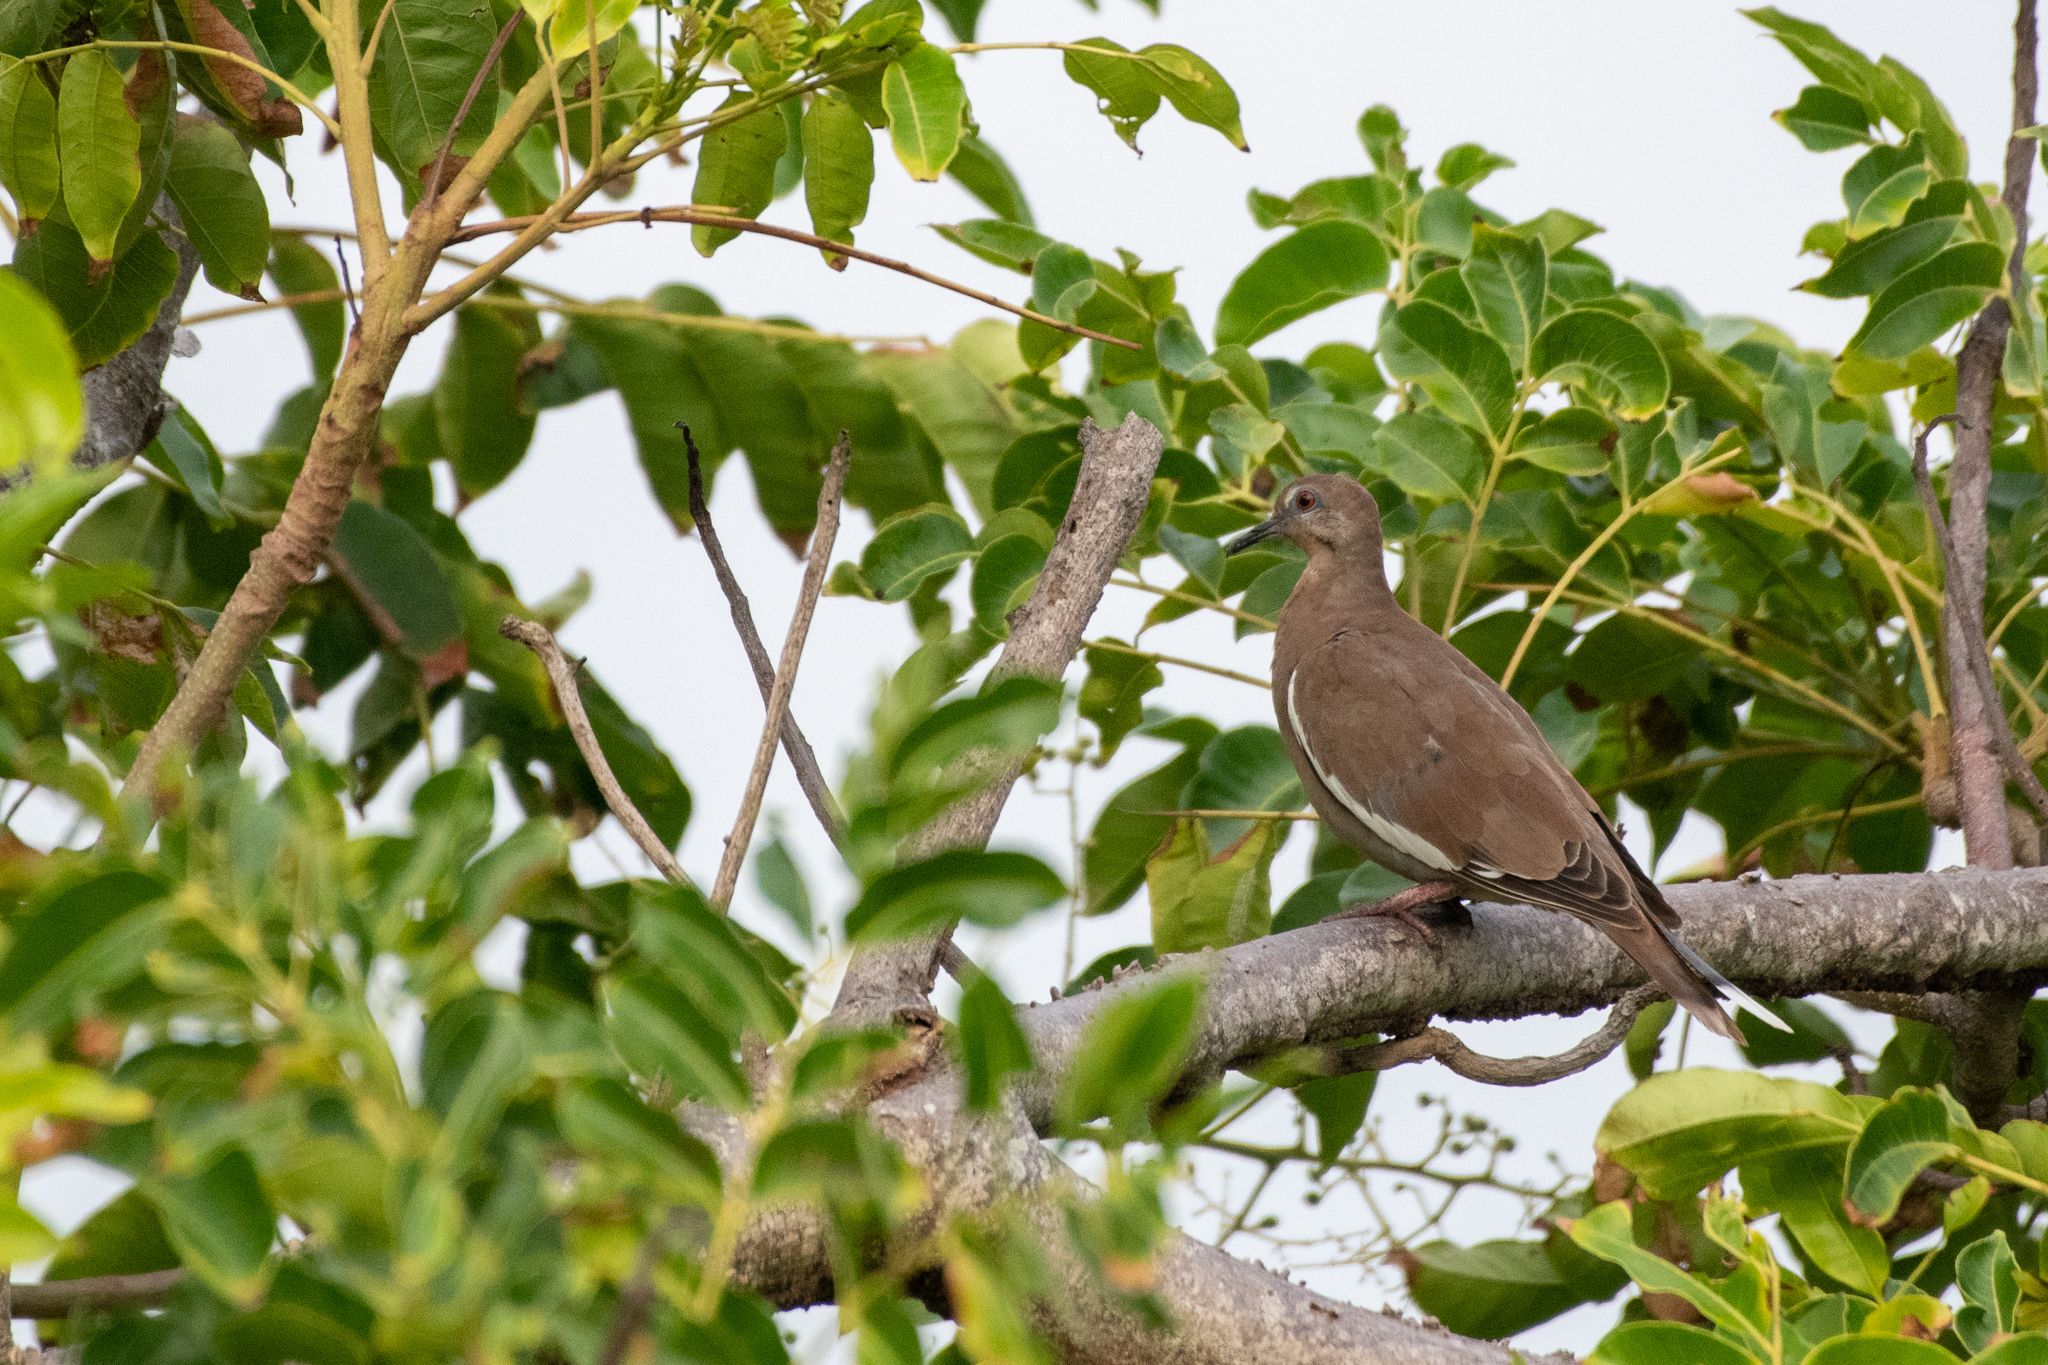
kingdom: Animalia
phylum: Chordata
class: Aves
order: Columbiformes
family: Columbidae
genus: Zenaida
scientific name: Zenaida asiatica
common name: White-winged dove
